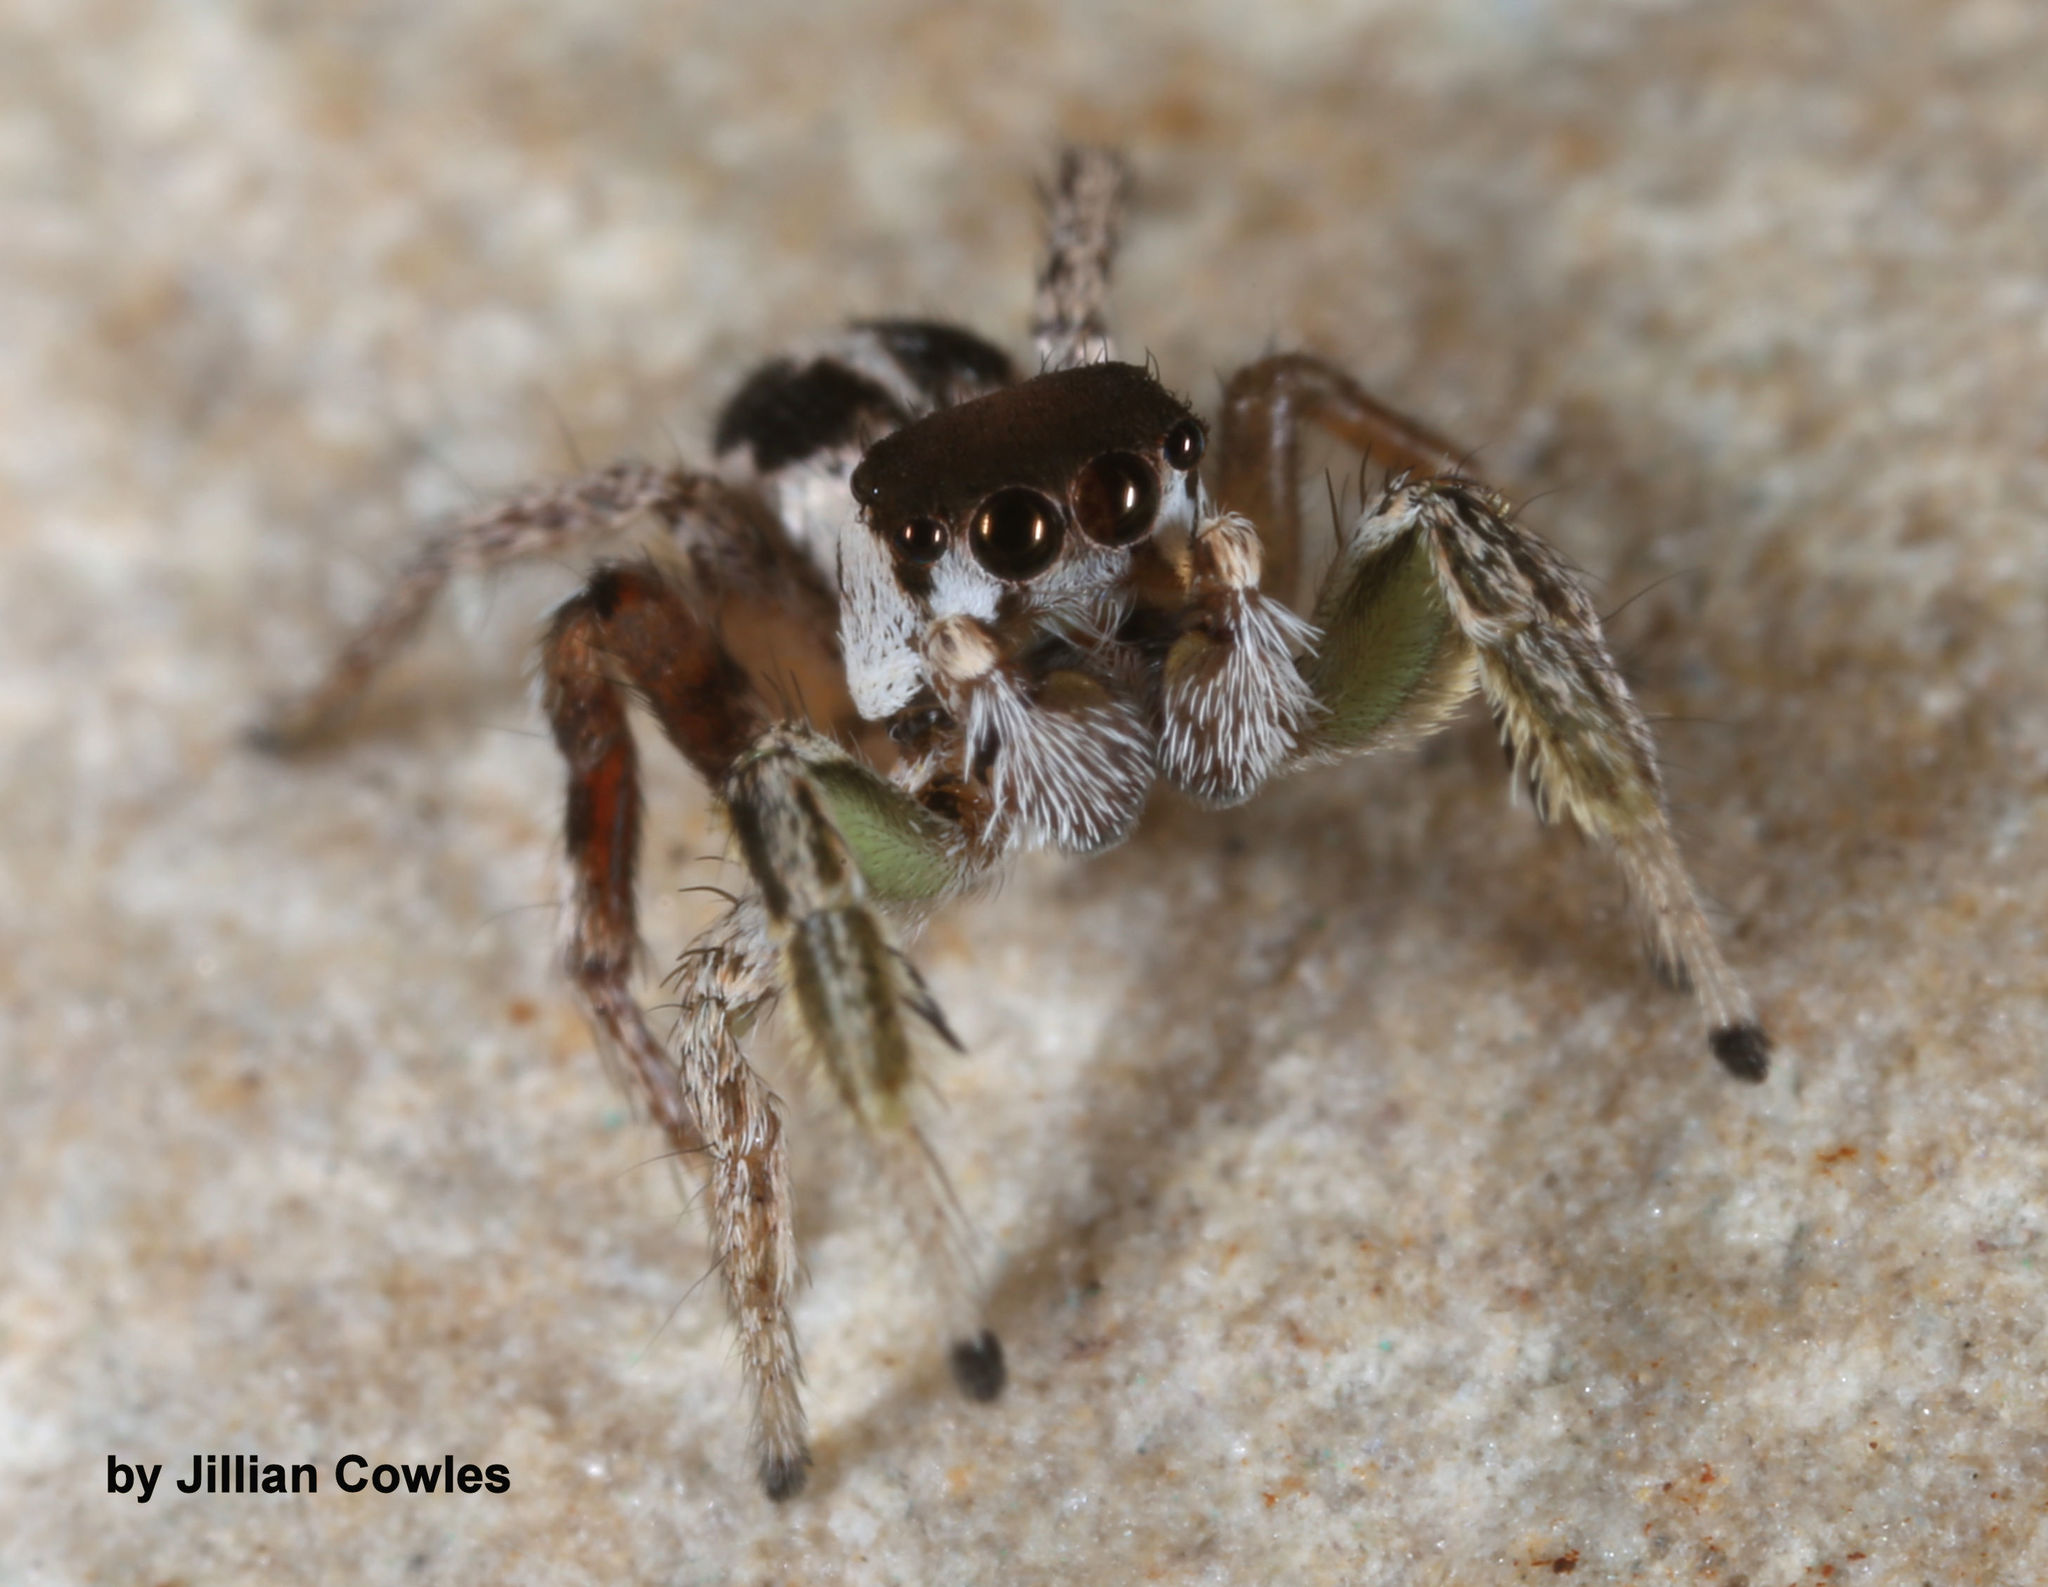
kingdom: Animalia
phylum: Arthropoda
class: Arachnida
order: Araneae
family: Salticidae
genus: Habronattus
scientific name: Habronattus dossenus
